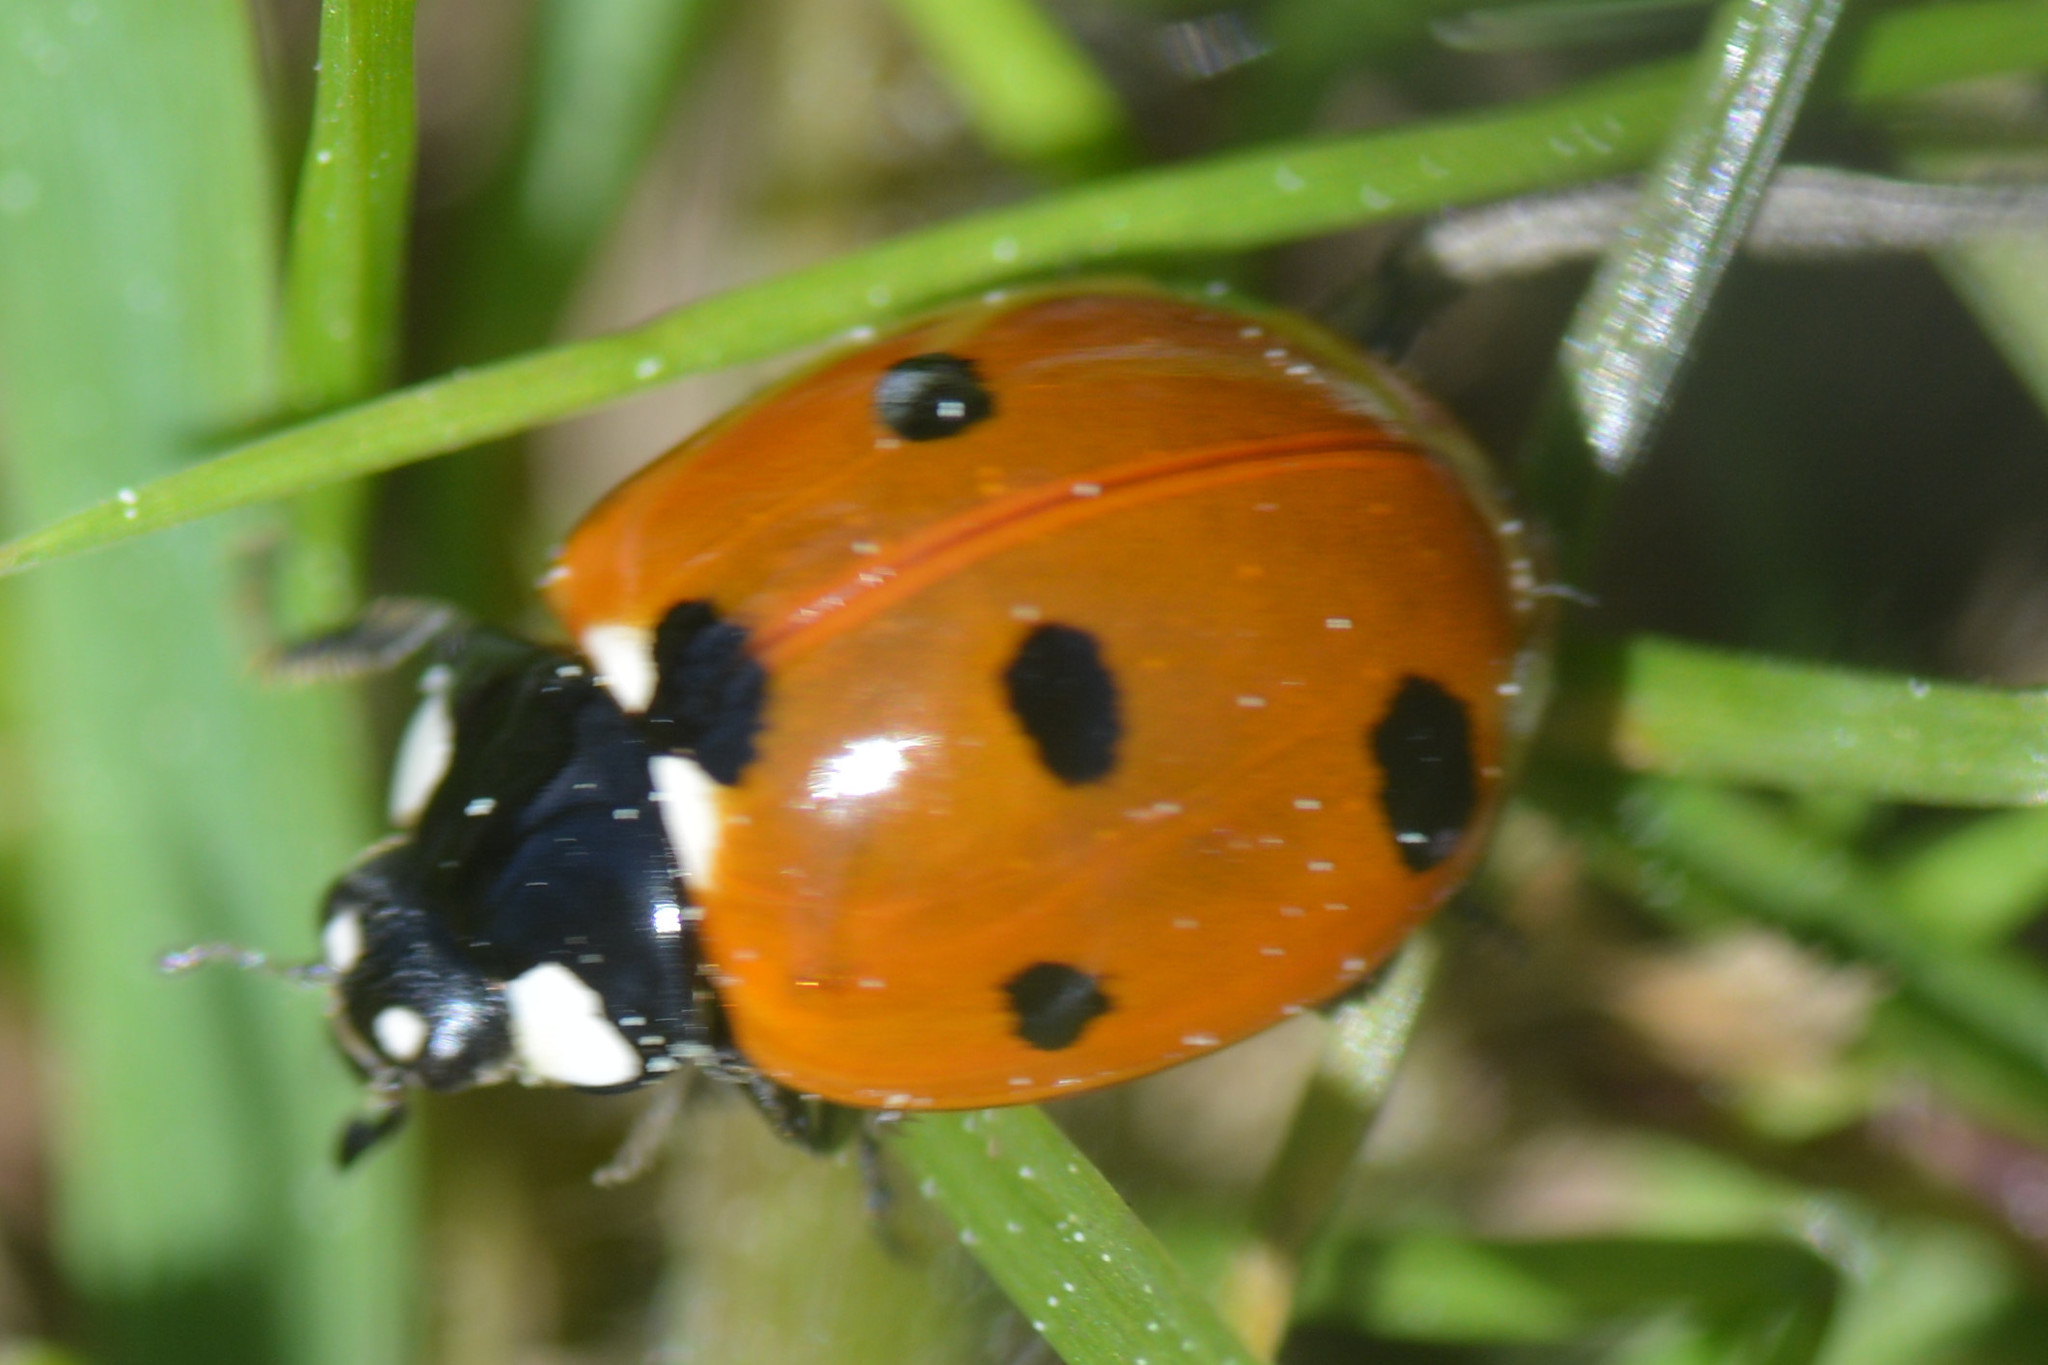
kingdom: Animalia
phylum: Arthropoda
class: Insecta
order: Coleoptera
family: Coccinellidae
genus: Coccinella
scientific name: Coccinella septempunctata
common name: Sevenspotted lady beetle
